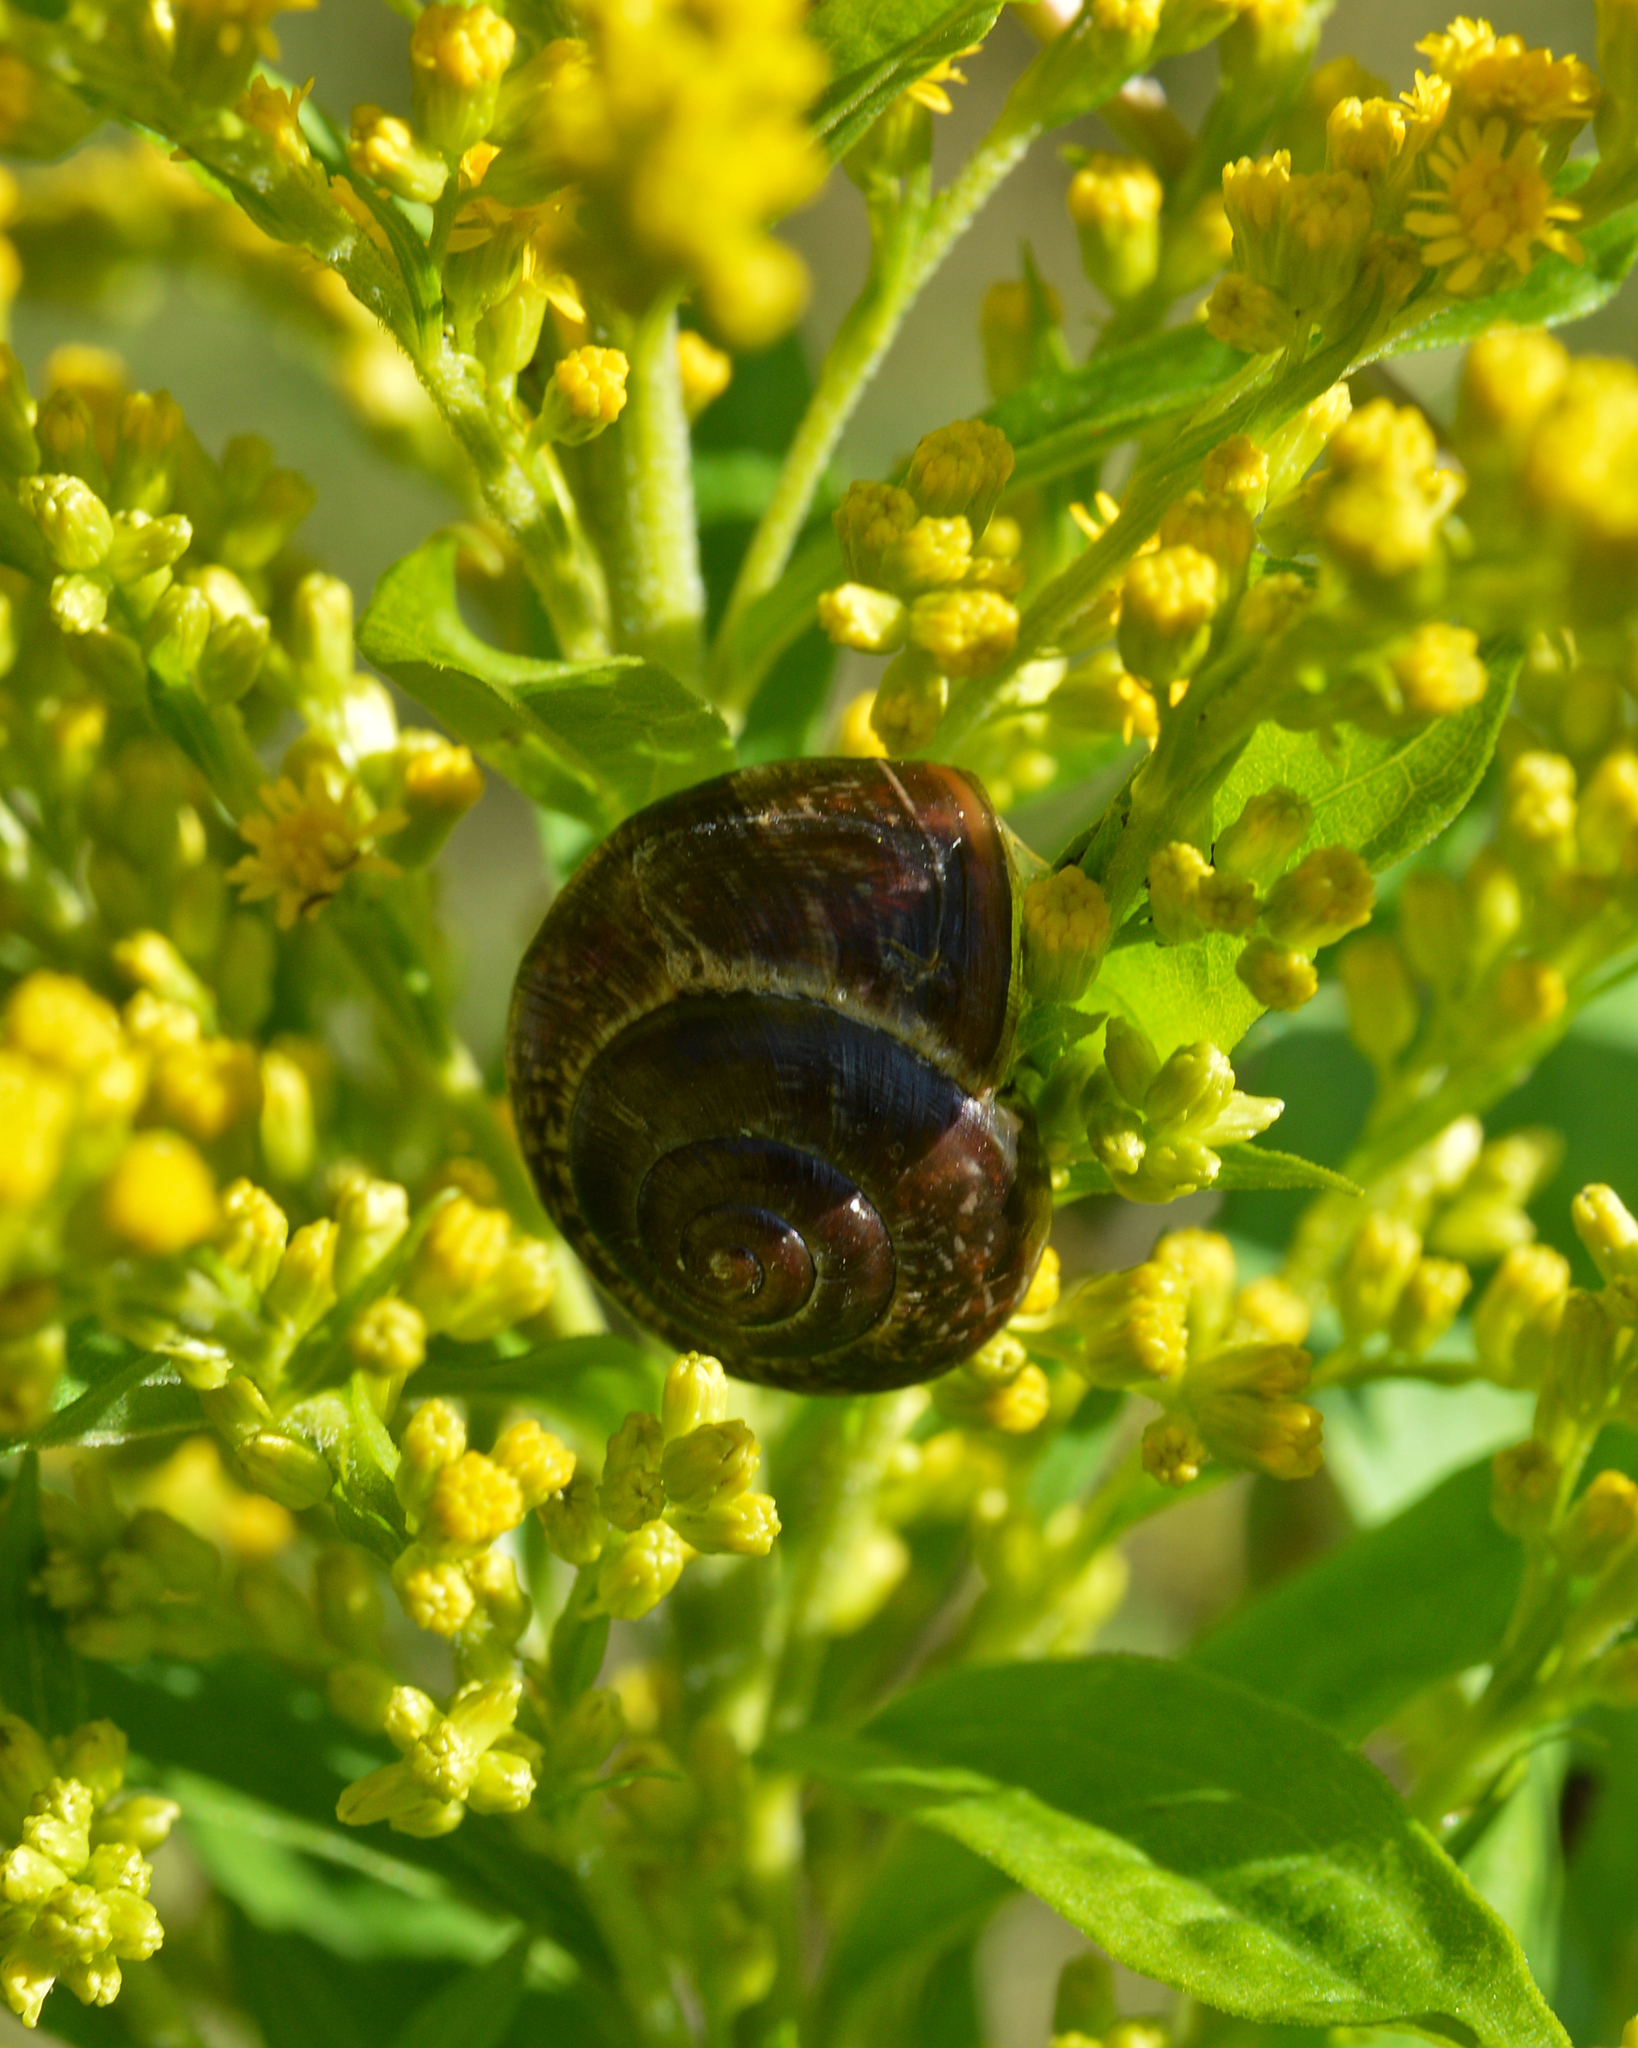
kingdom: Animalia
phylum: Mollusca
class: Gastropoda
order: Stylommatophora
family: Helicidae
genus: Arianta
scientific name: Arianta arbustorum
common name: Copse snail
